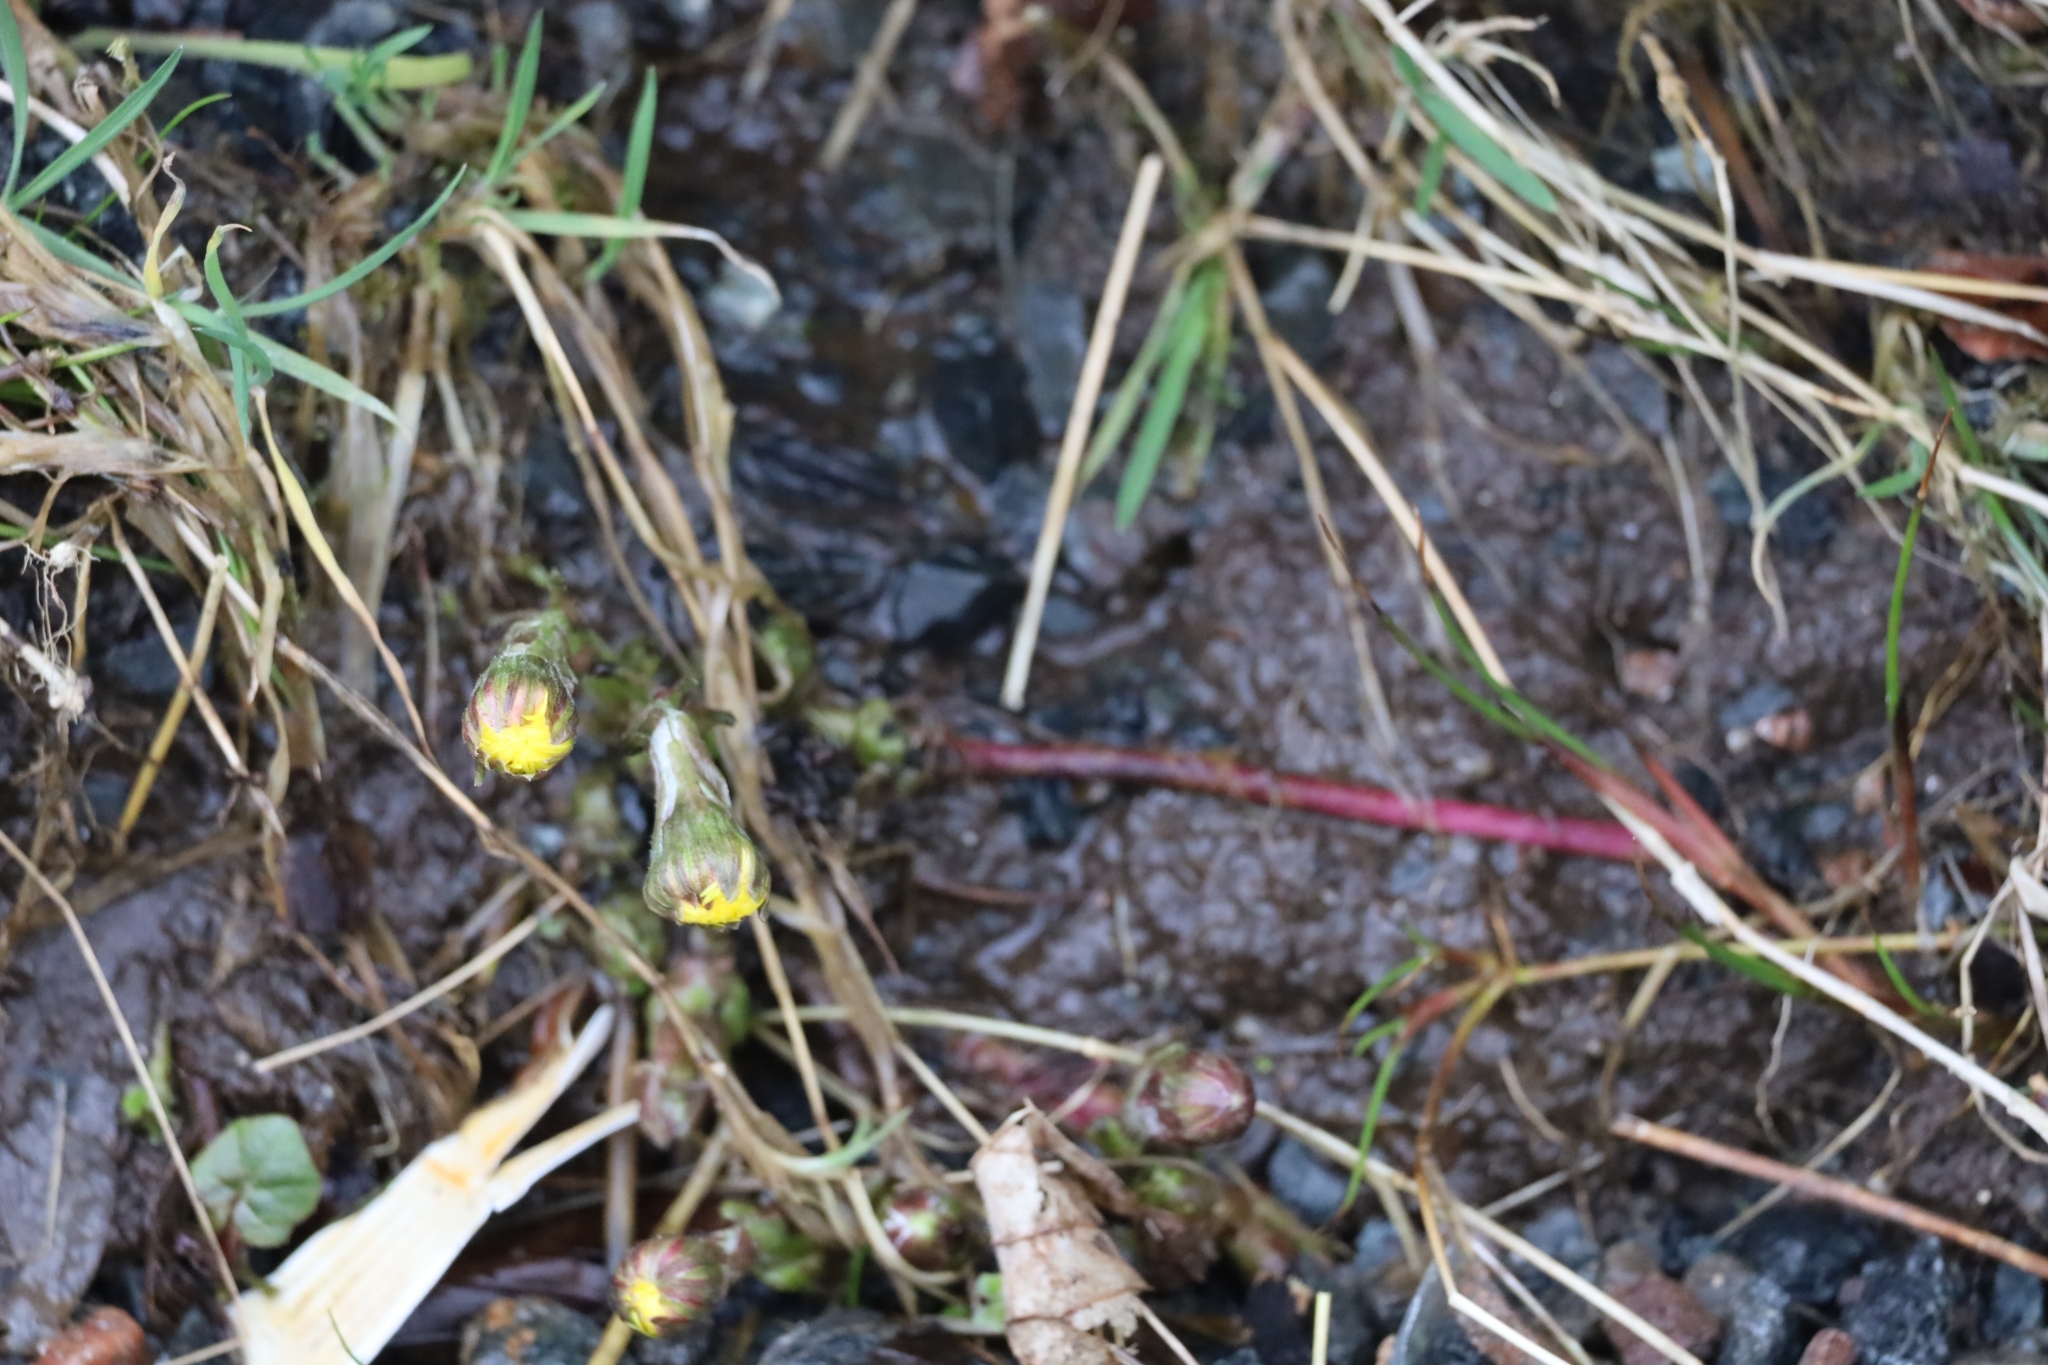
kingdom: Plantae
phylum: Tracheophyta
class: Magnoliopsida
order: Asterales
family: Asteraceae
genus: Tussilago
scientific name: Tussilago farfara
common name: Coltsfoot
